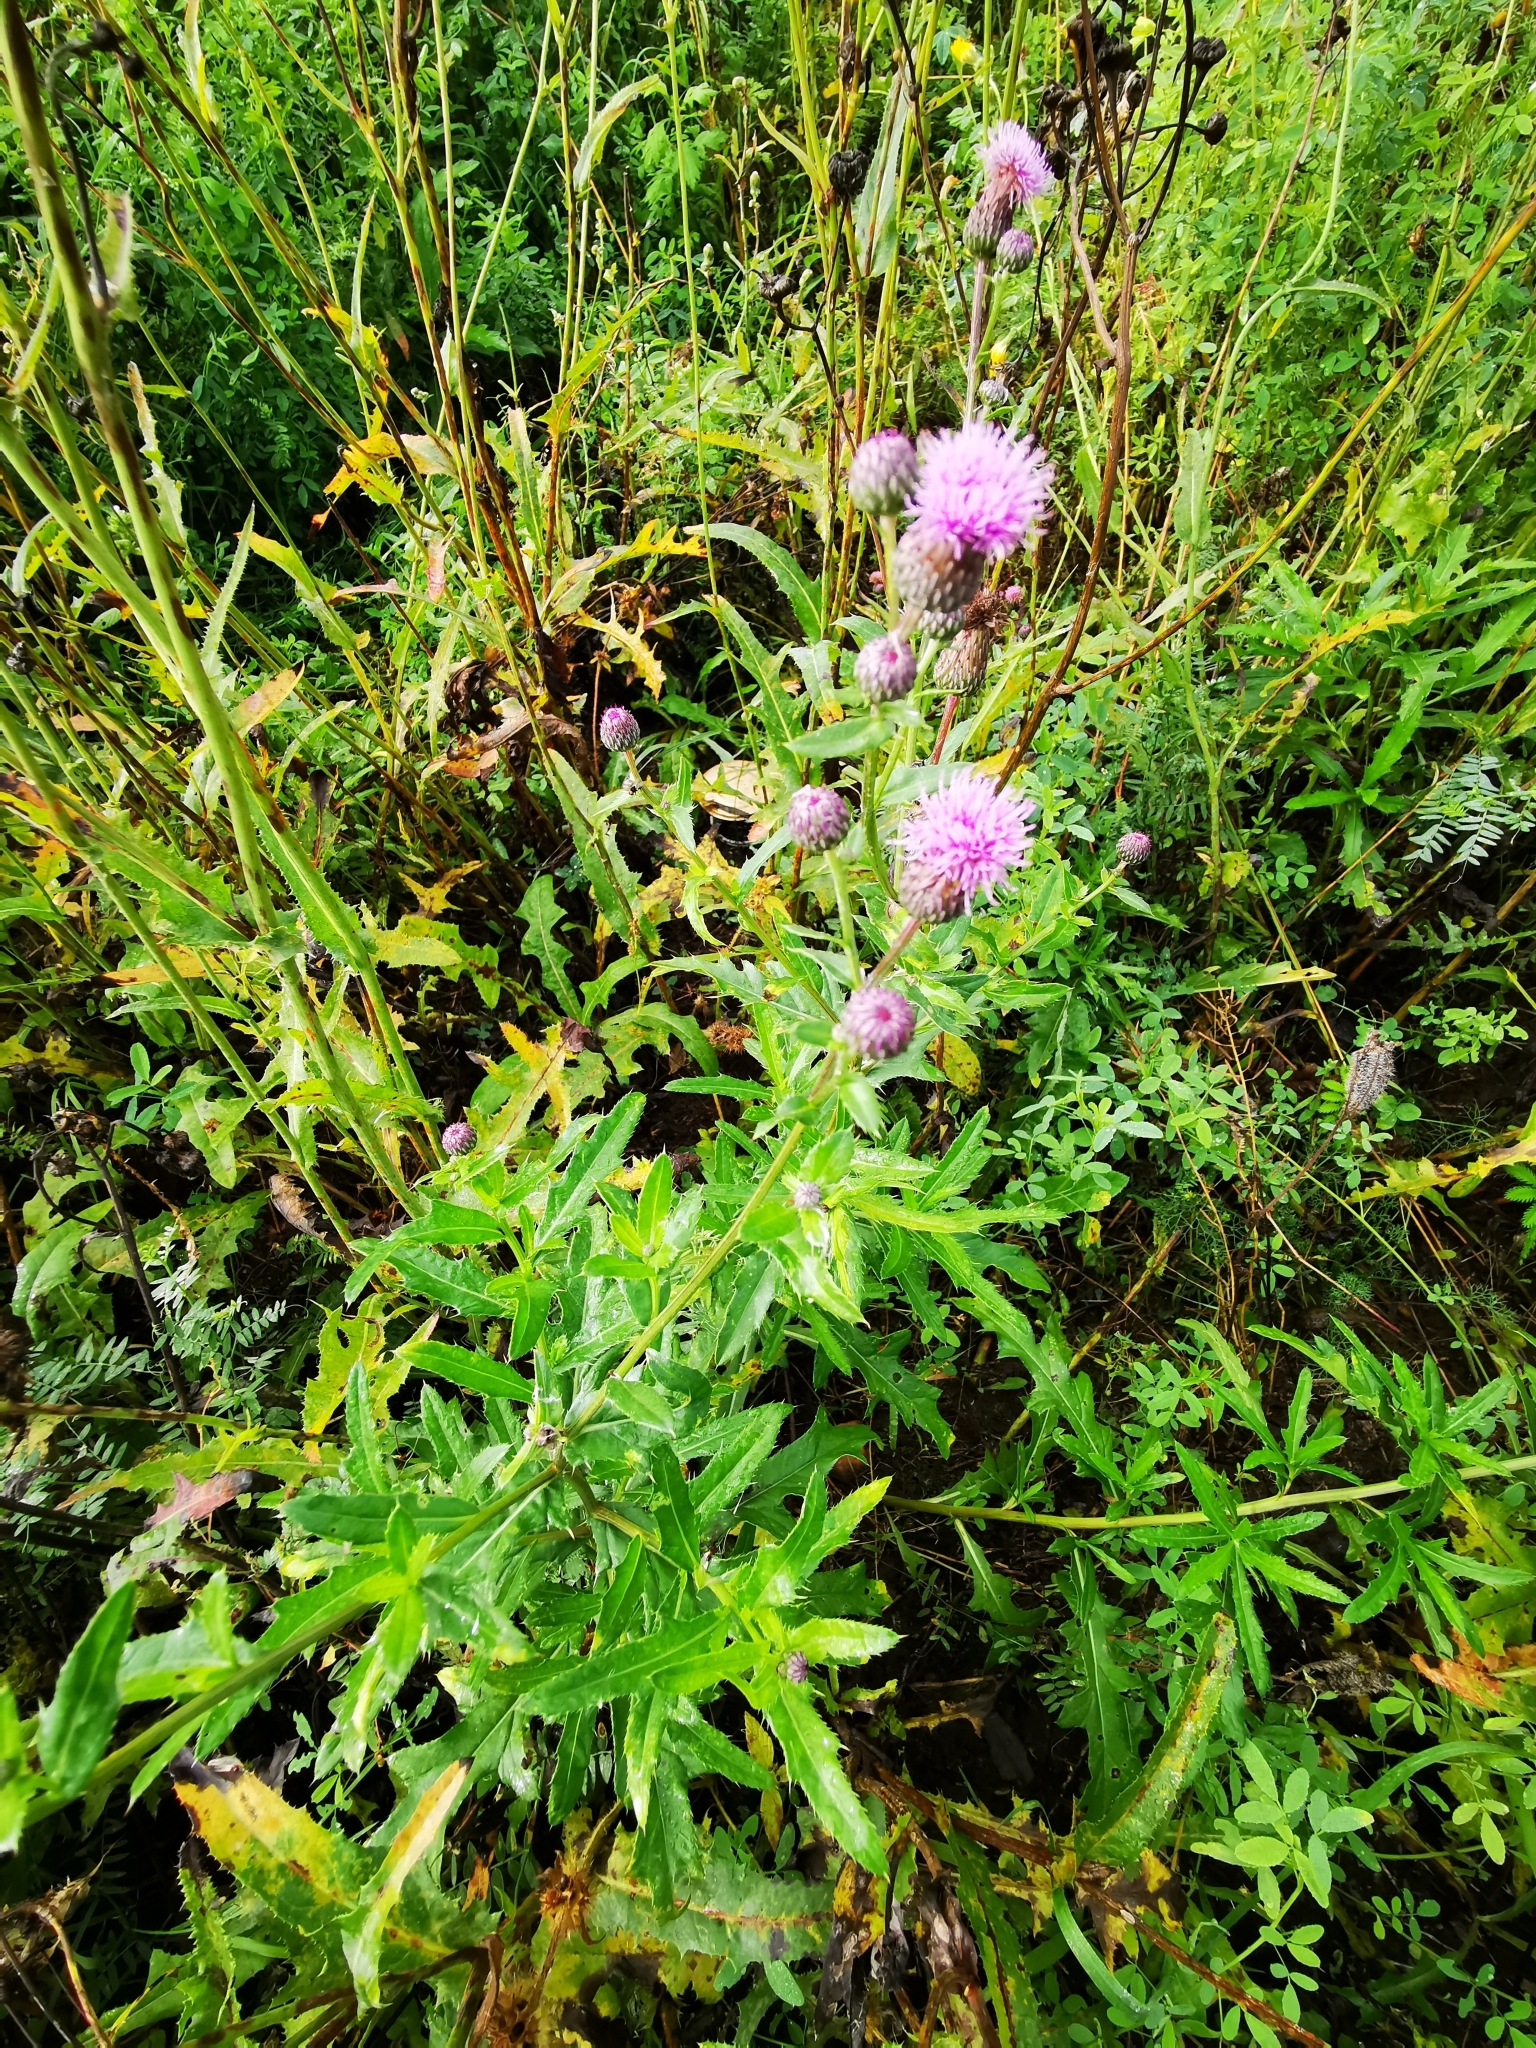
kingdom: Plantae
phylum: Tracheophyta
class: Magnoliopsida
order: Asterales
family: Asteraceae
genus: Cirsium
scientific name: Cirsium arvense
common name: Creeping thistle
